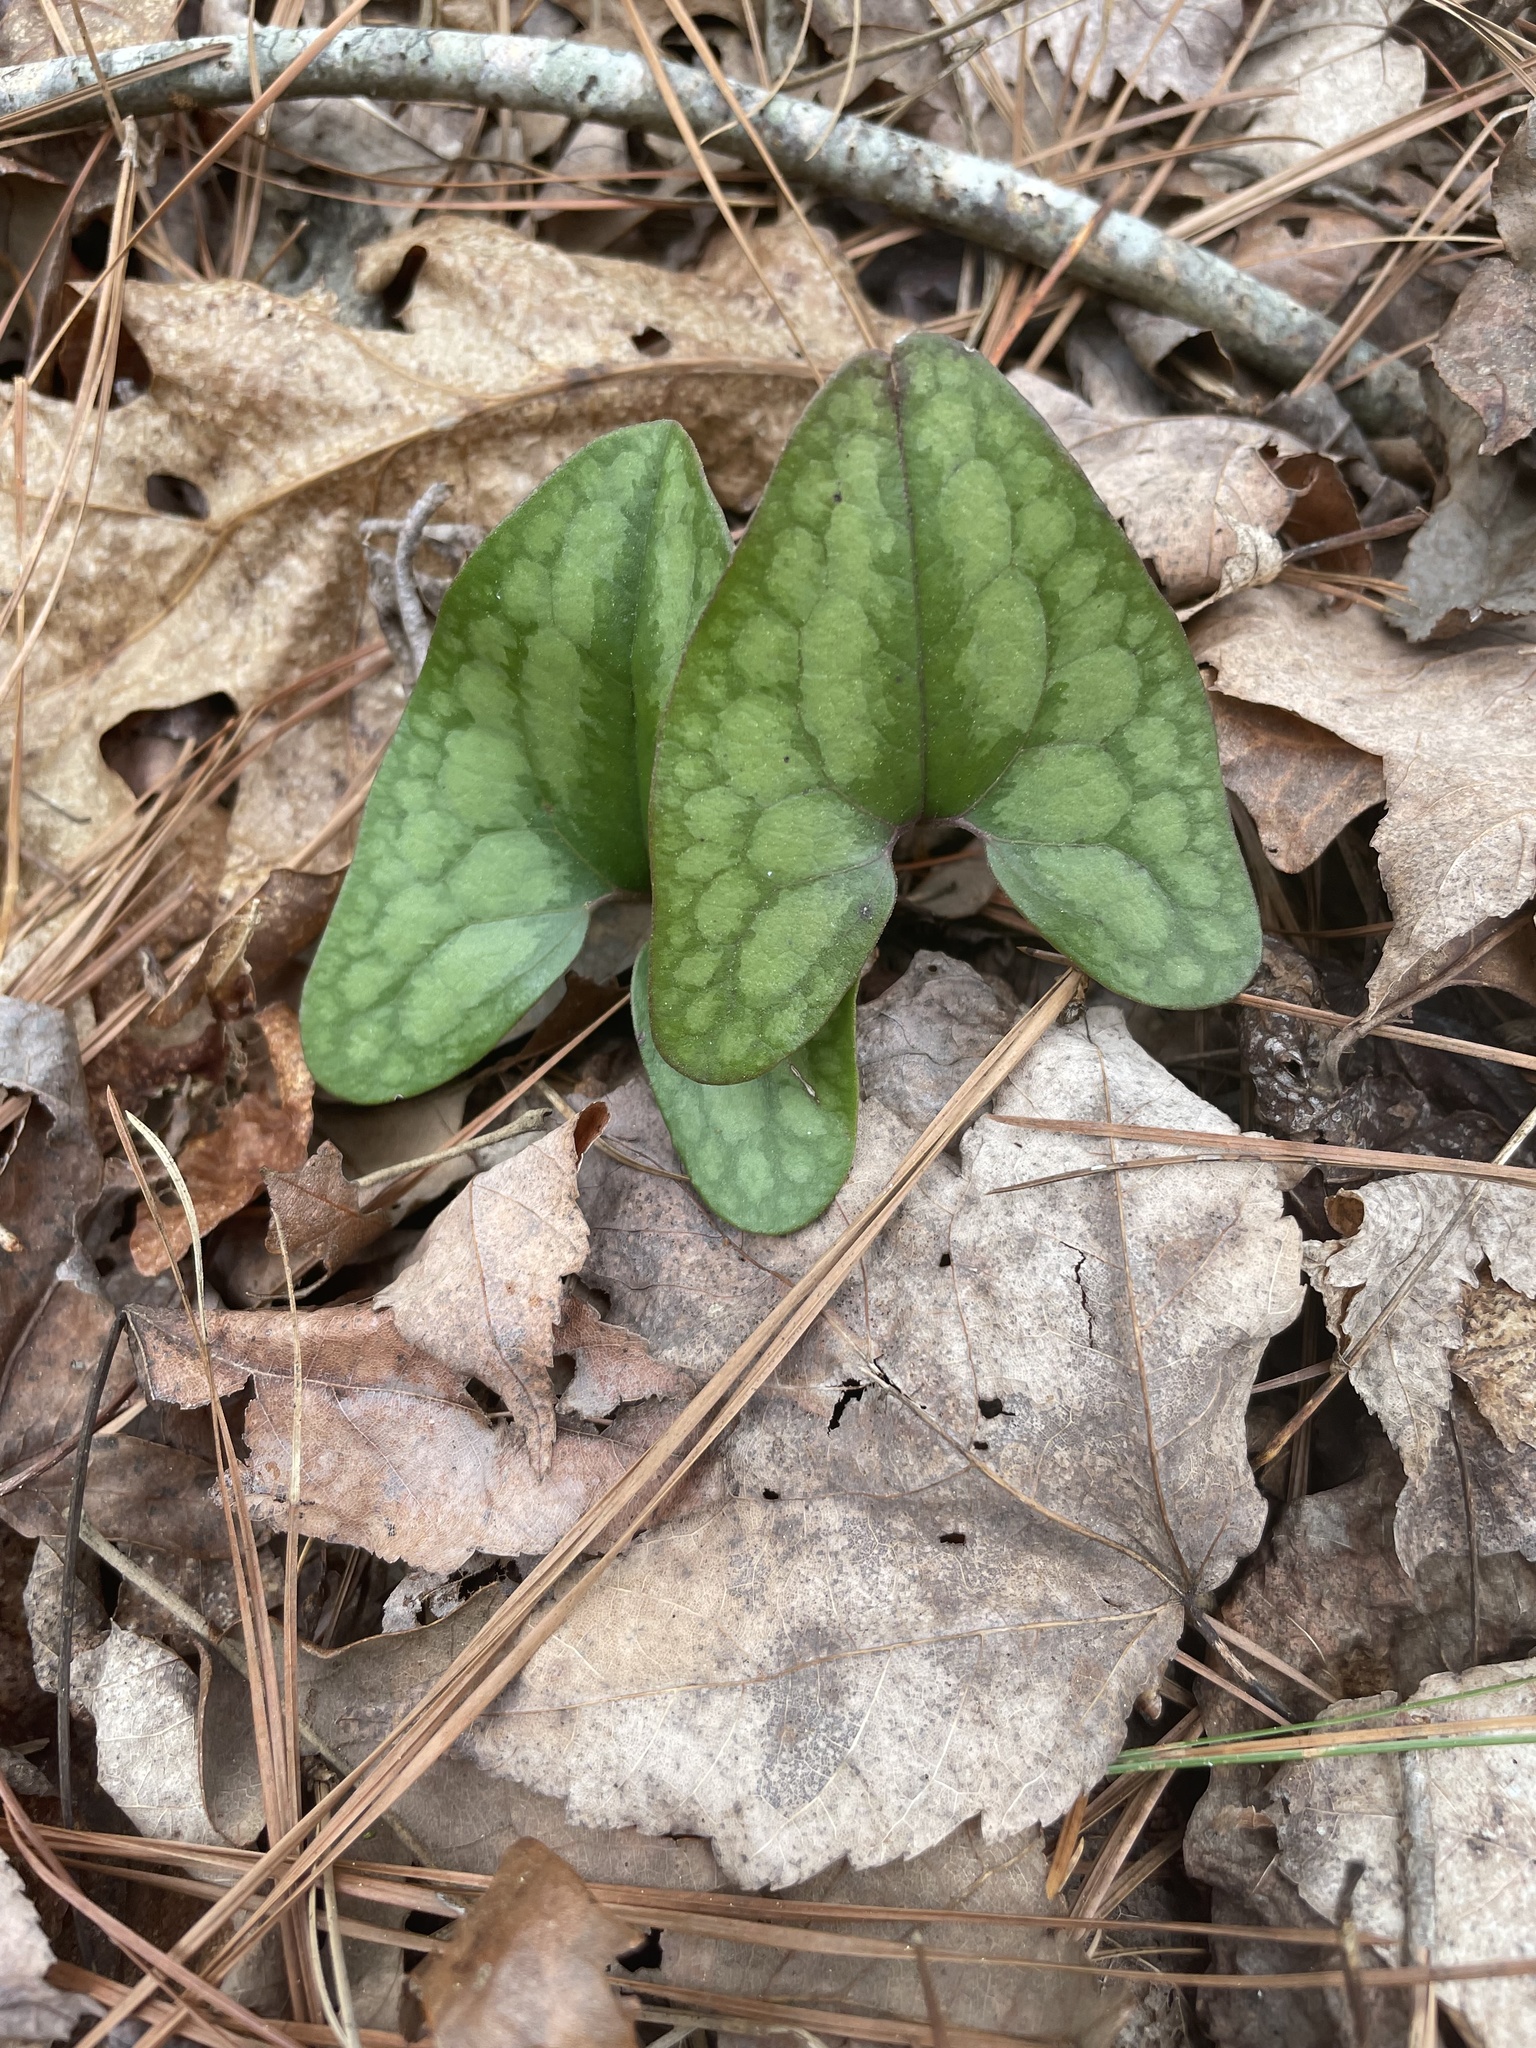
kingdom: Plantae
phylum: Tracheophyta
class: Magnoliopsida
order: Piperales
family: Aristolochiaceae
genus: Hexastylis
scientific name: Hexastylis arifolia
